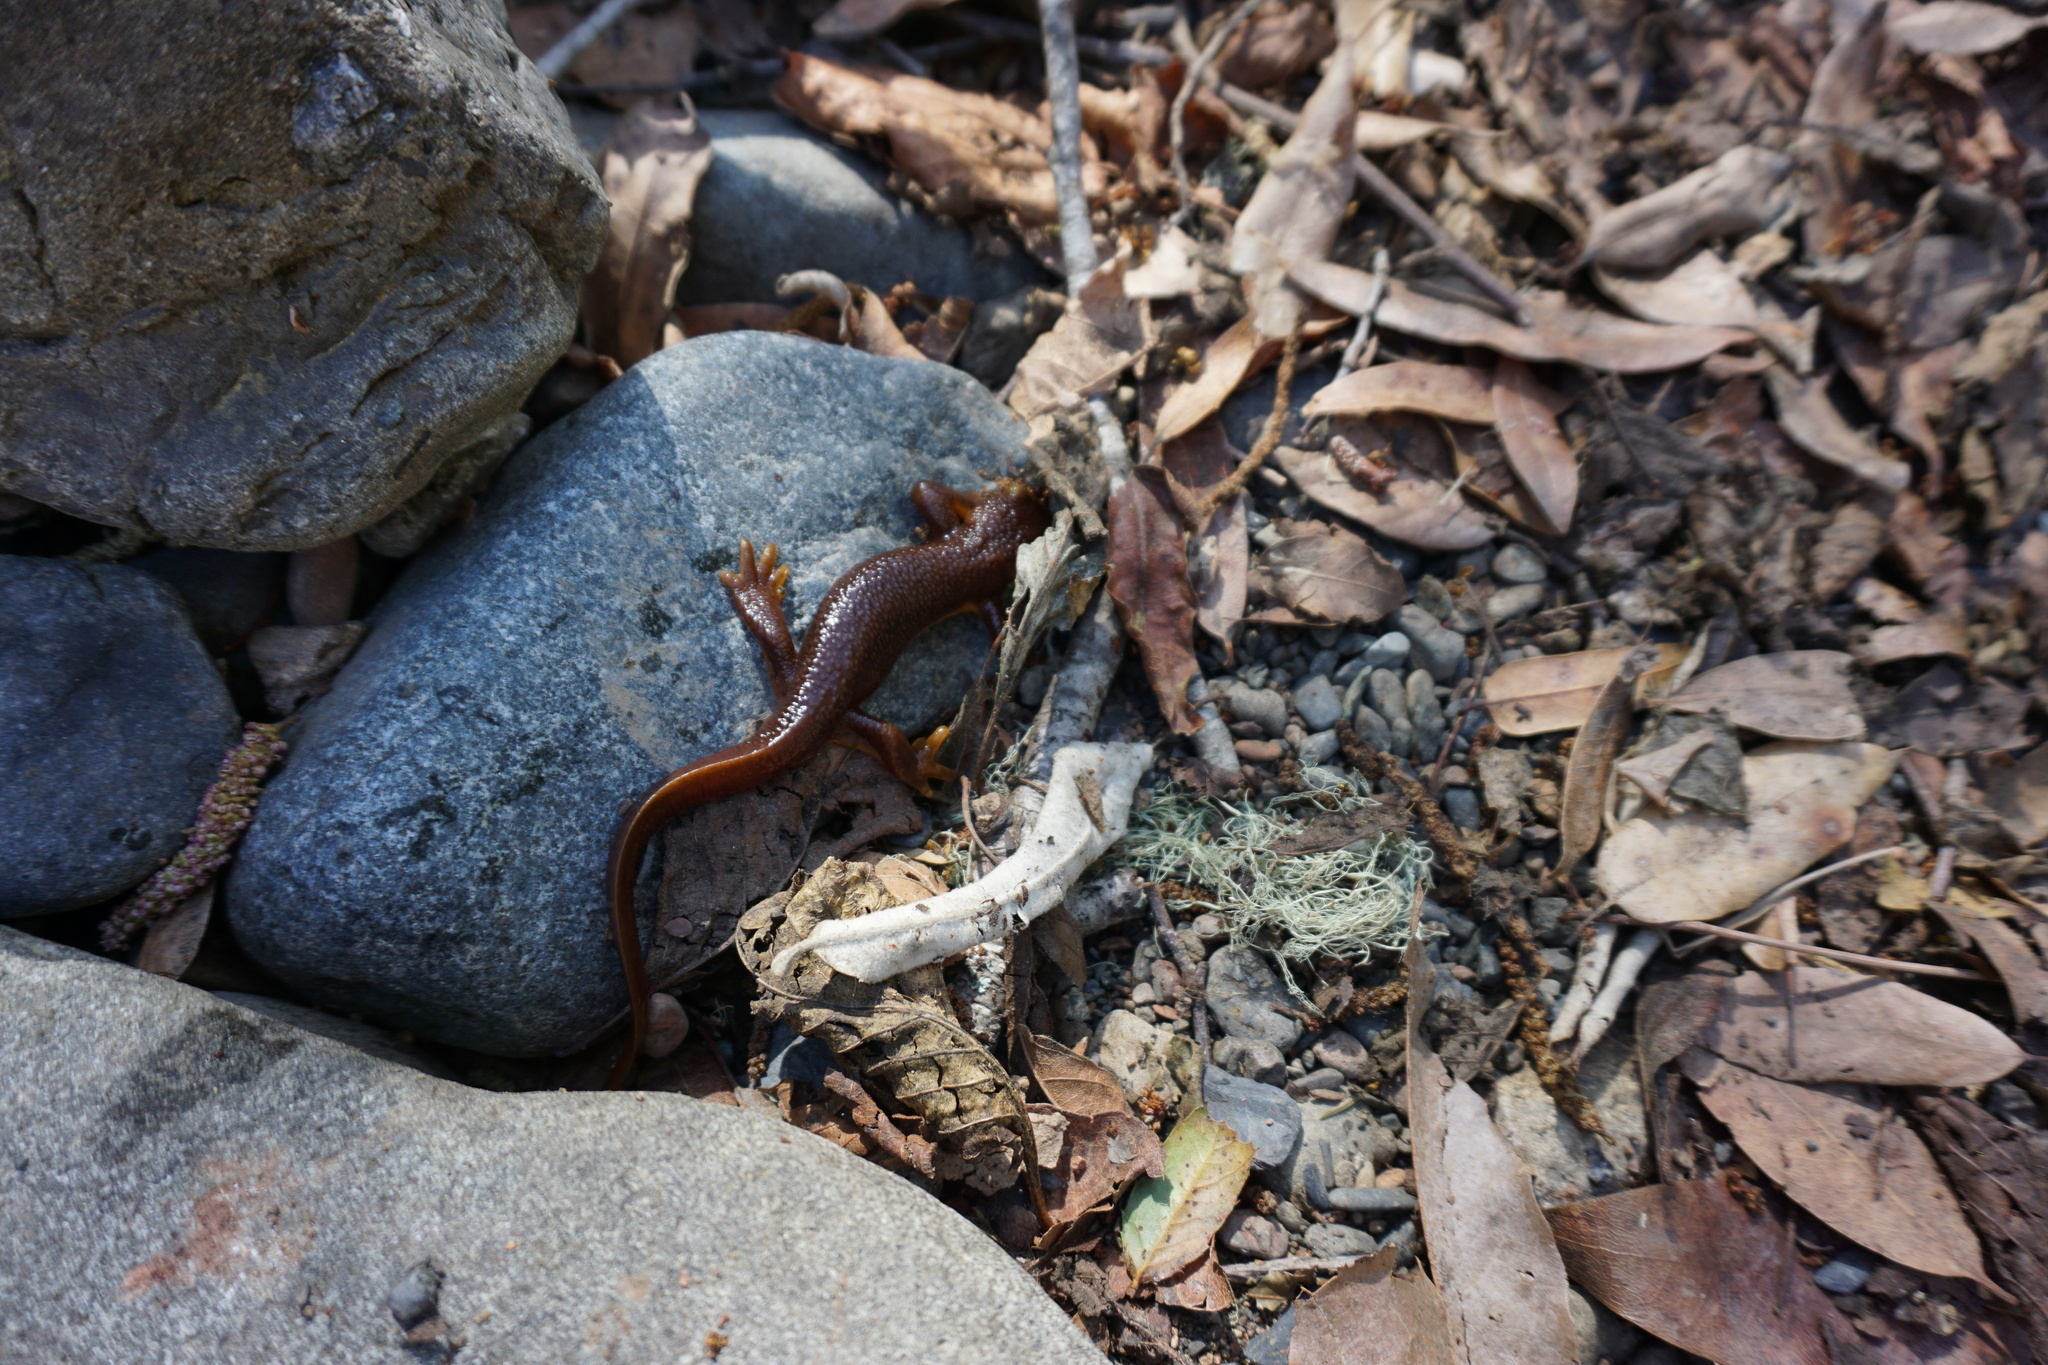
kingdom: Animalia
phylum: Chordata
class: Amphibia
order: Caudata
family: Salamandridae
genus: Taricha
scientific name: Taricha torosa
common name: California newt
